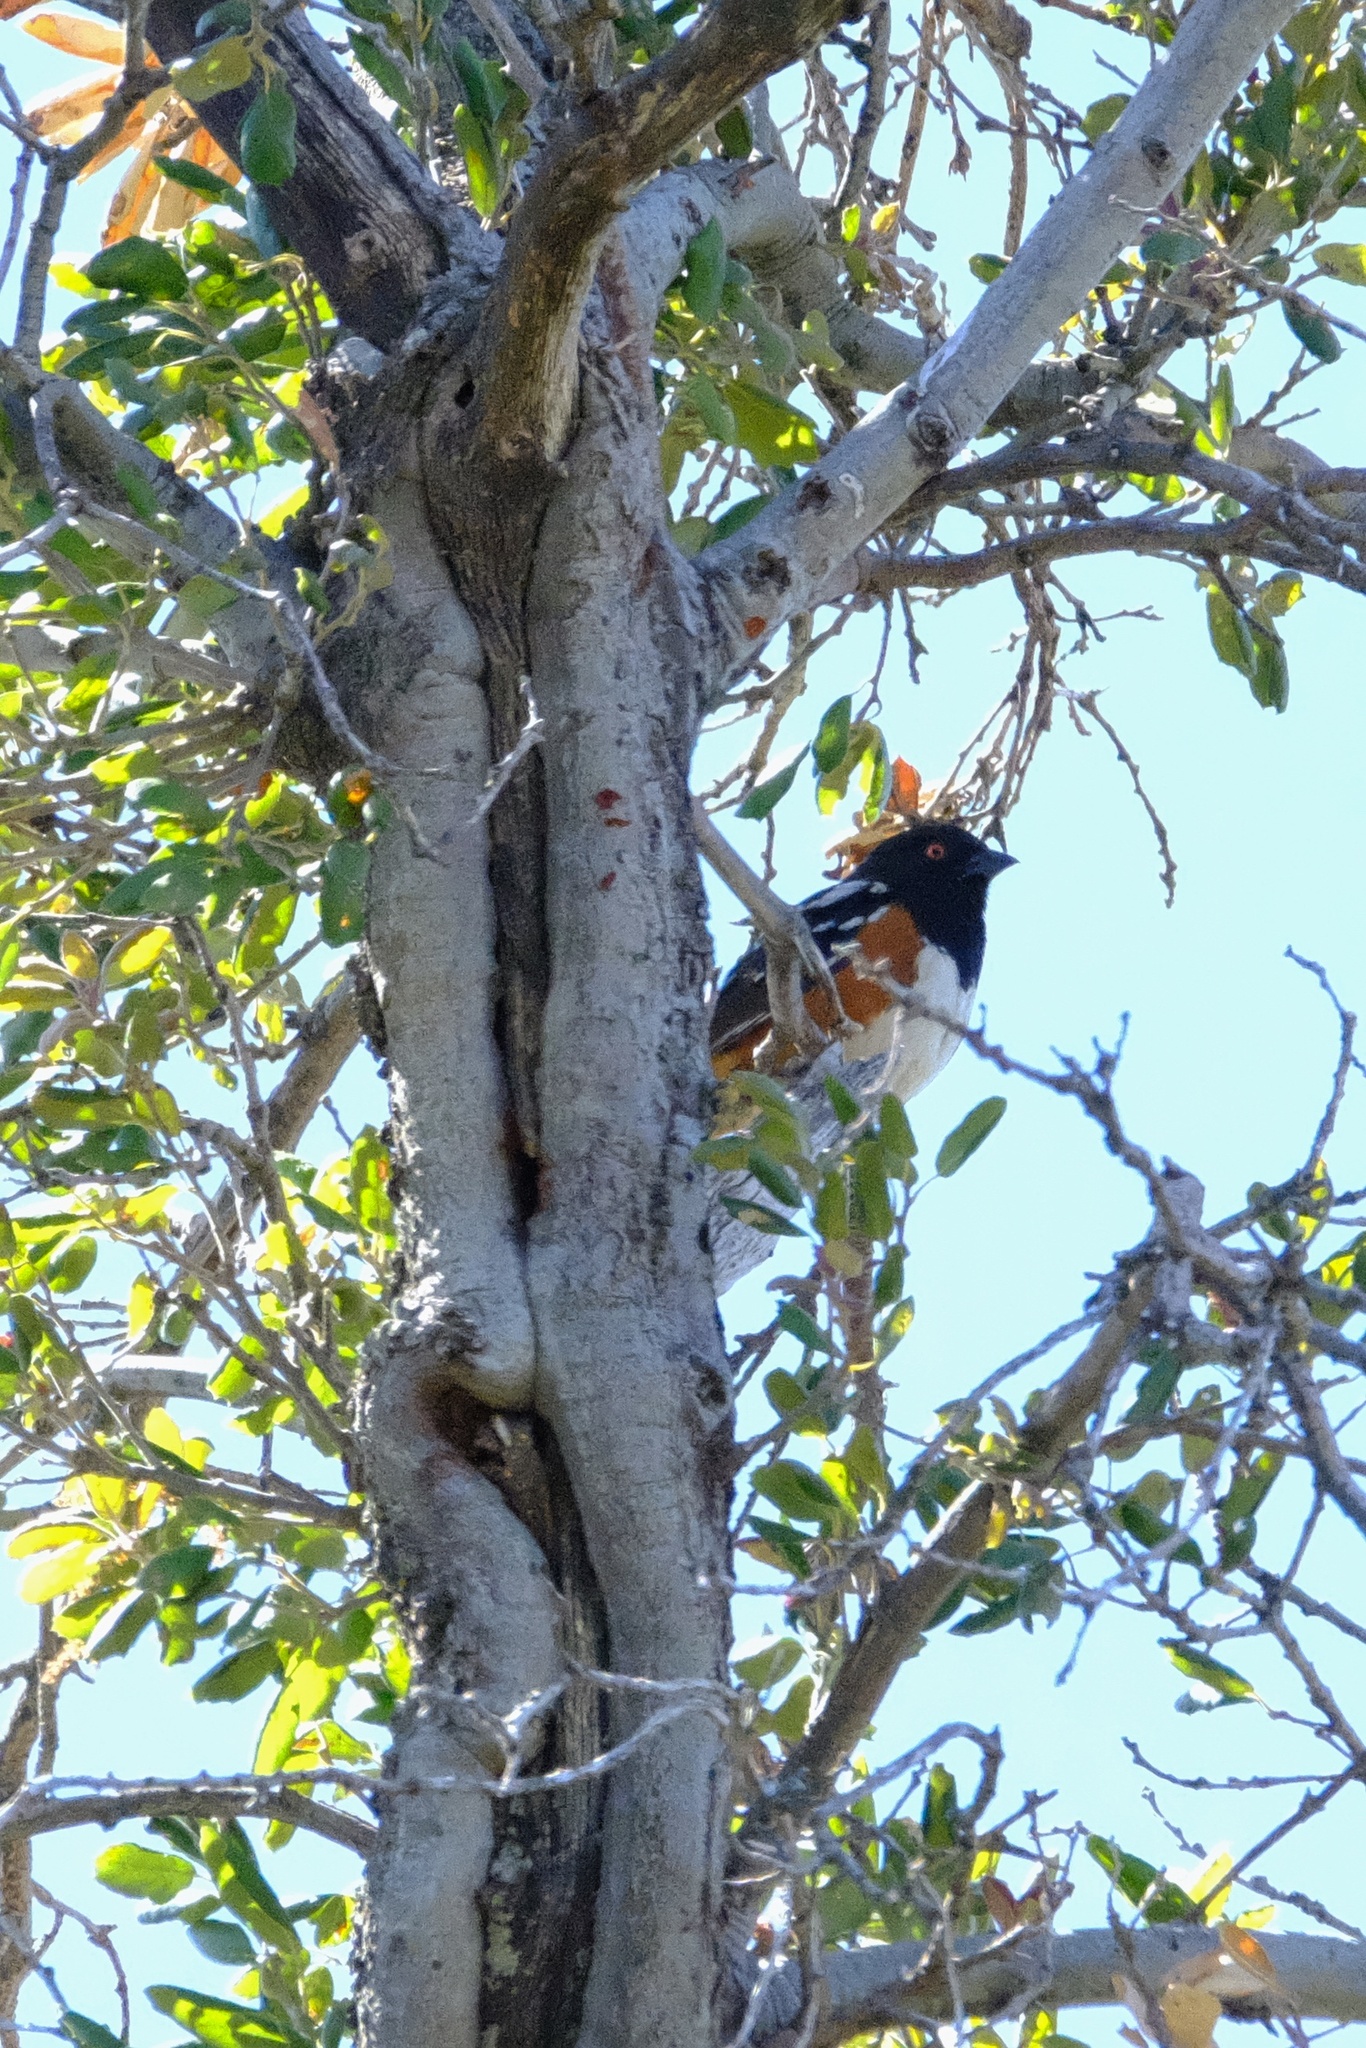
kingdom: Animalia
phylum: Chordata
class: Aves
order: Passeriformes
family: Passerellidae
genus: Pipilo
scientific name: Pipilo maculatus
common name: Spotted towhee
